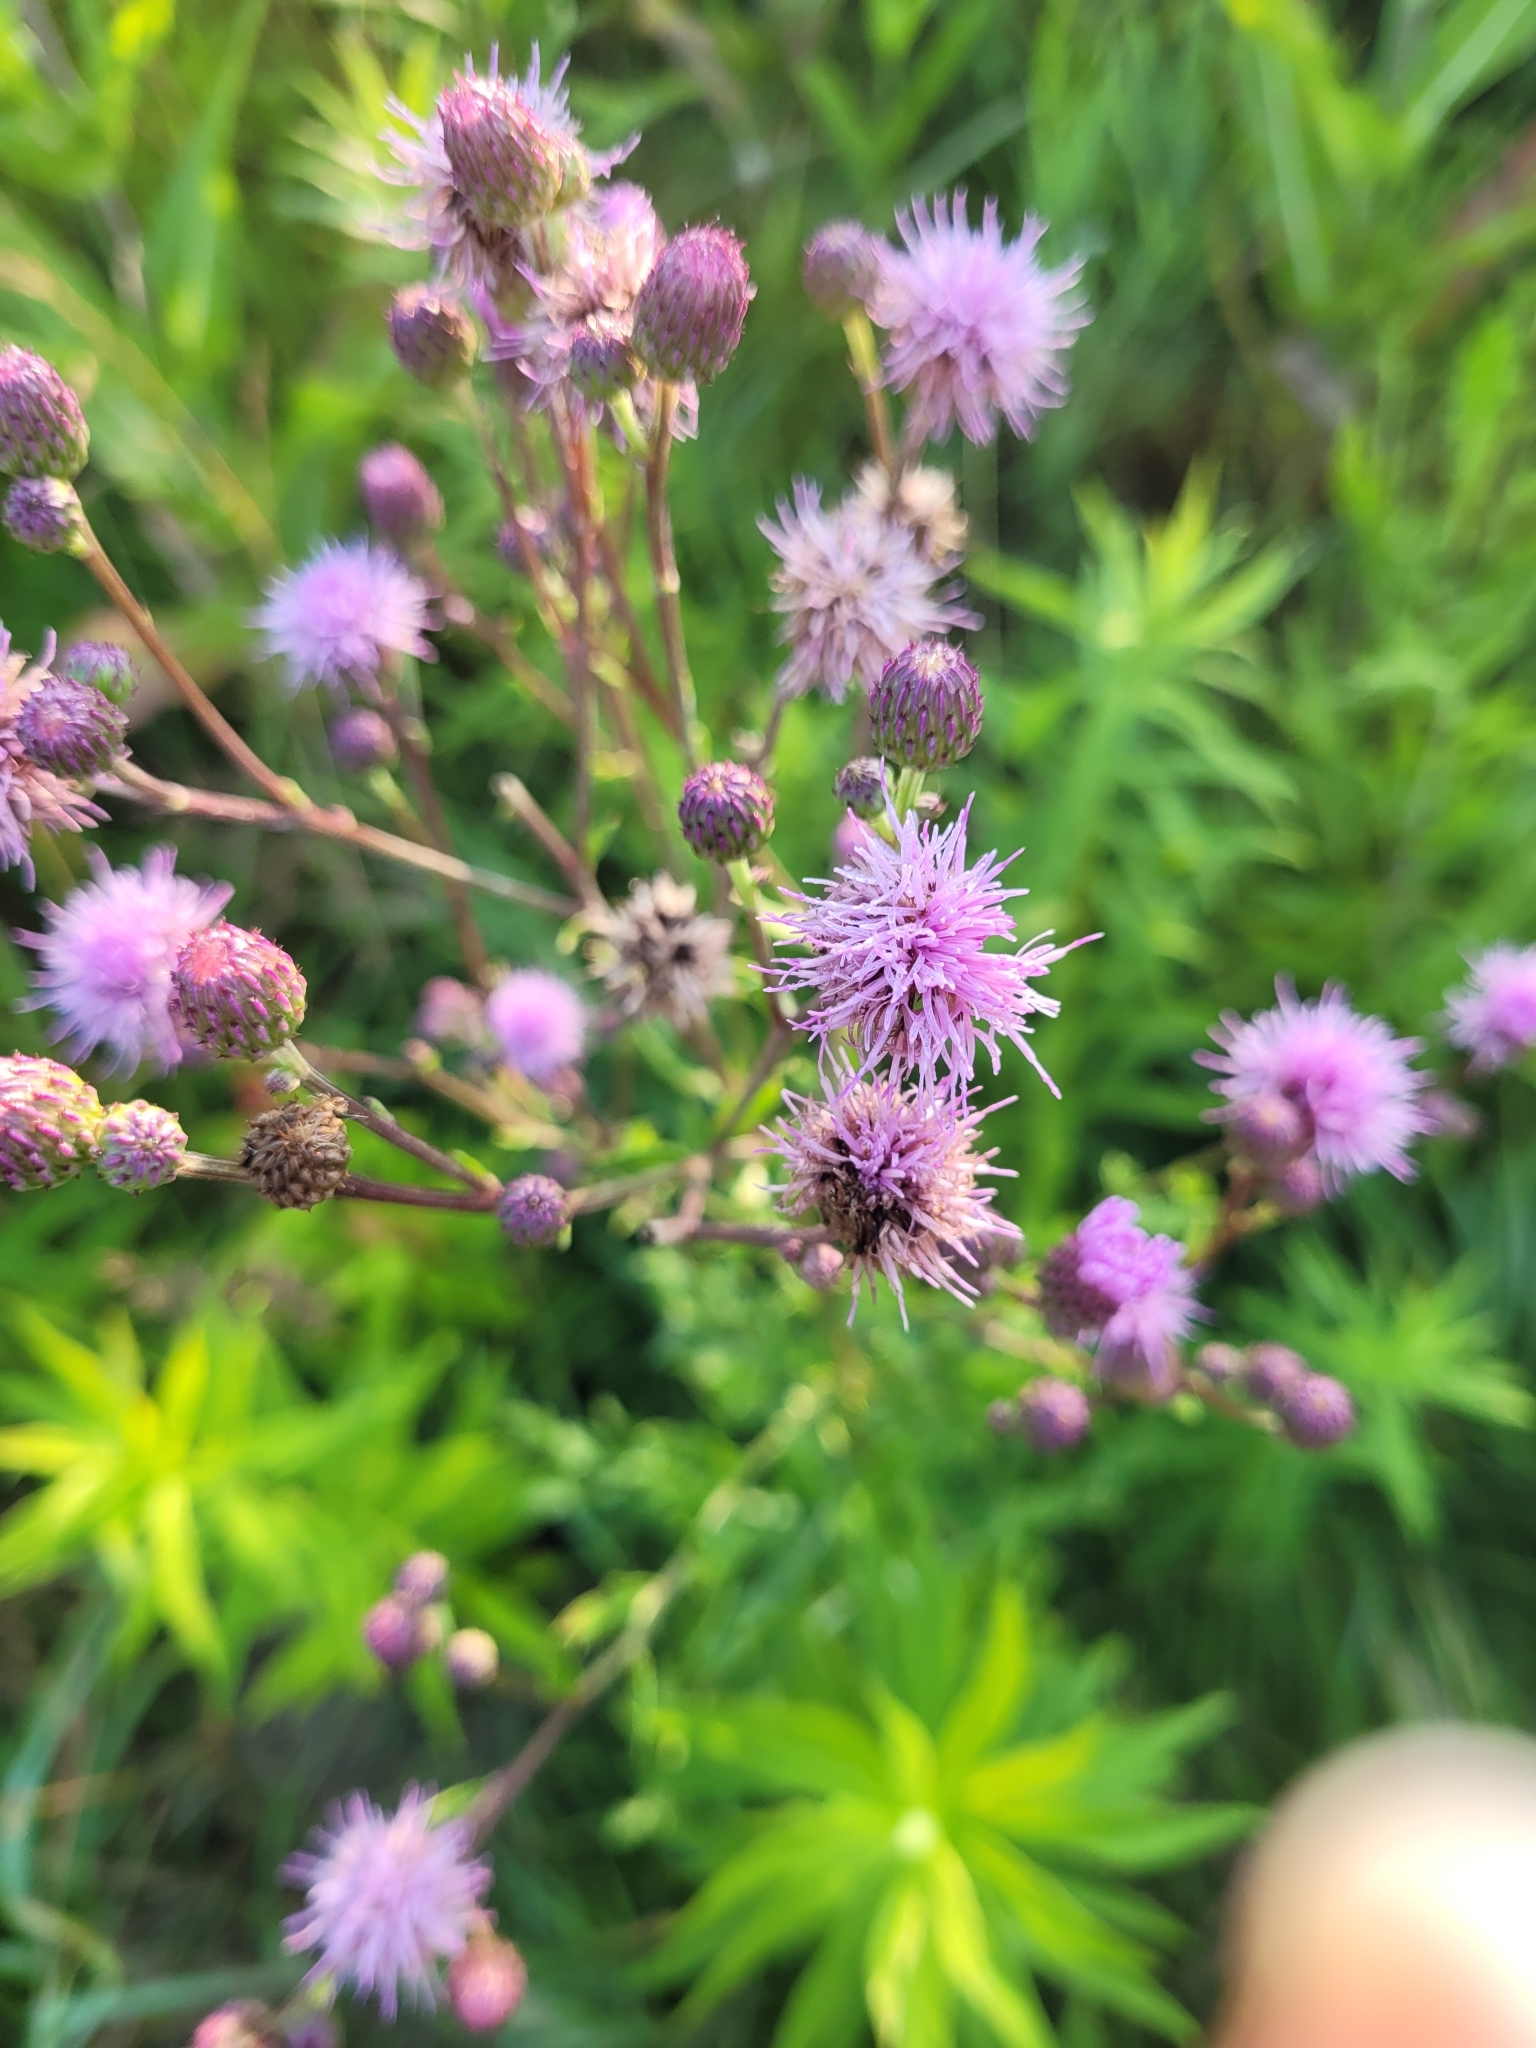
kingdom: Plantae
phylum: Tracheophyta
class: Magnoliopsida
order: Asterales
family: Asteraceae
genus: Cirsium
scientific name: Cirsium arvense
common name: Creeping thistle
